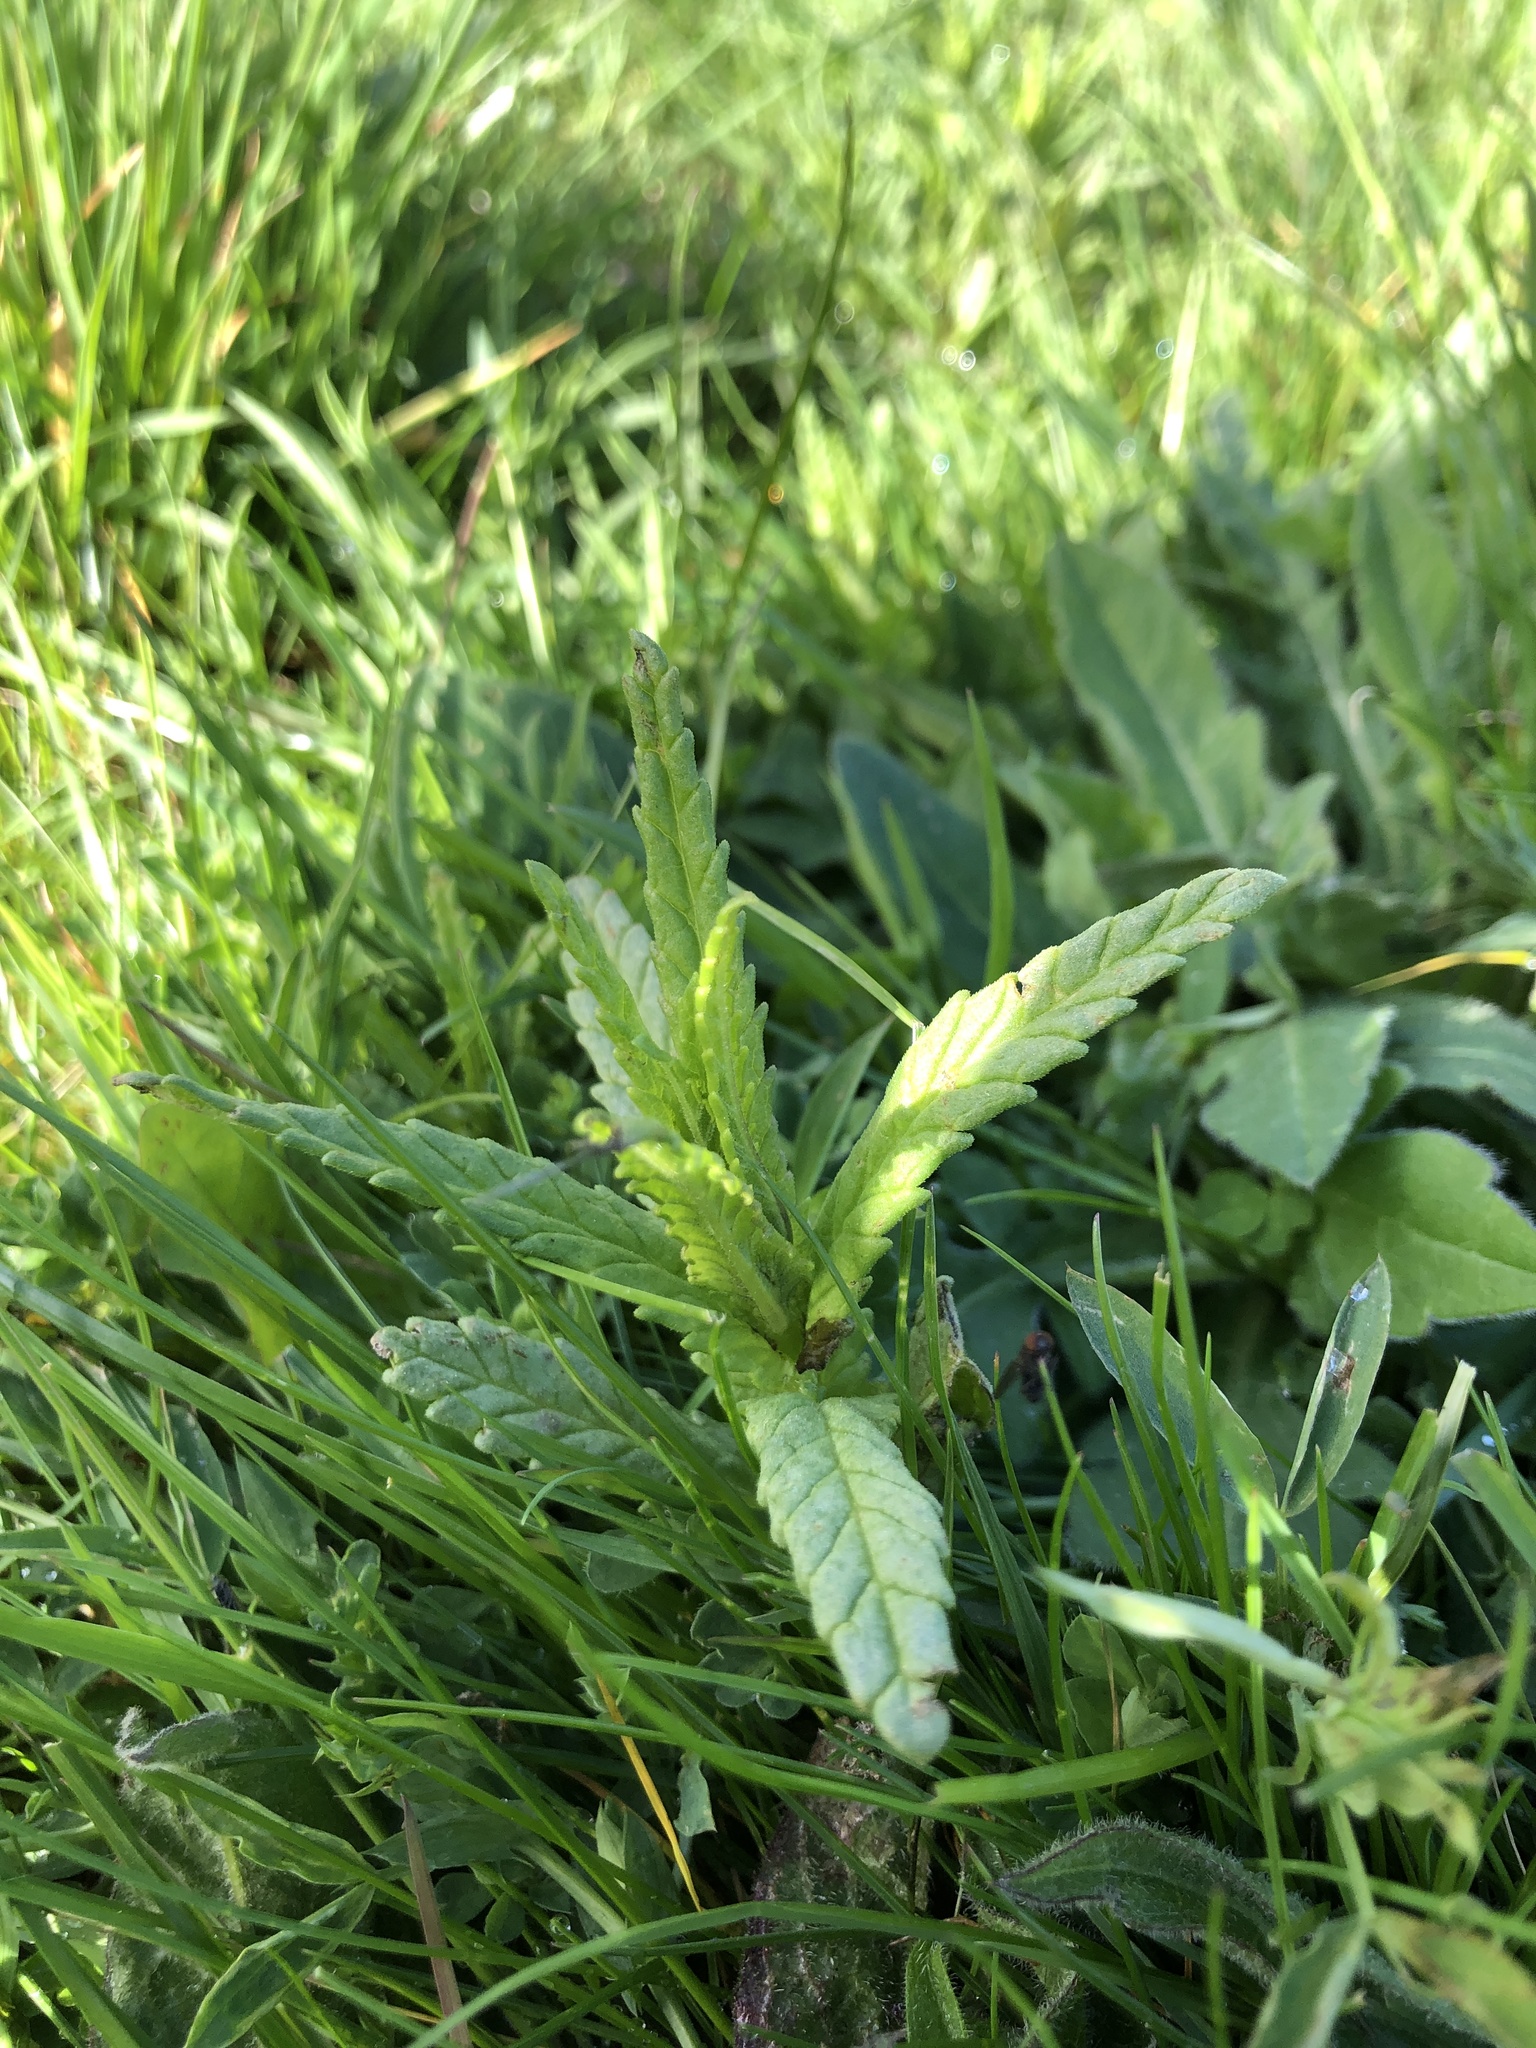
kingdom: Plantae
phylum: Tracheophyta
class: Magnoliopsida
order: Lamiales
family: Orobanchaceae
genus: Rhinanthus
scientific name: Rhinanthus minor
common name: Yellow-rattle
